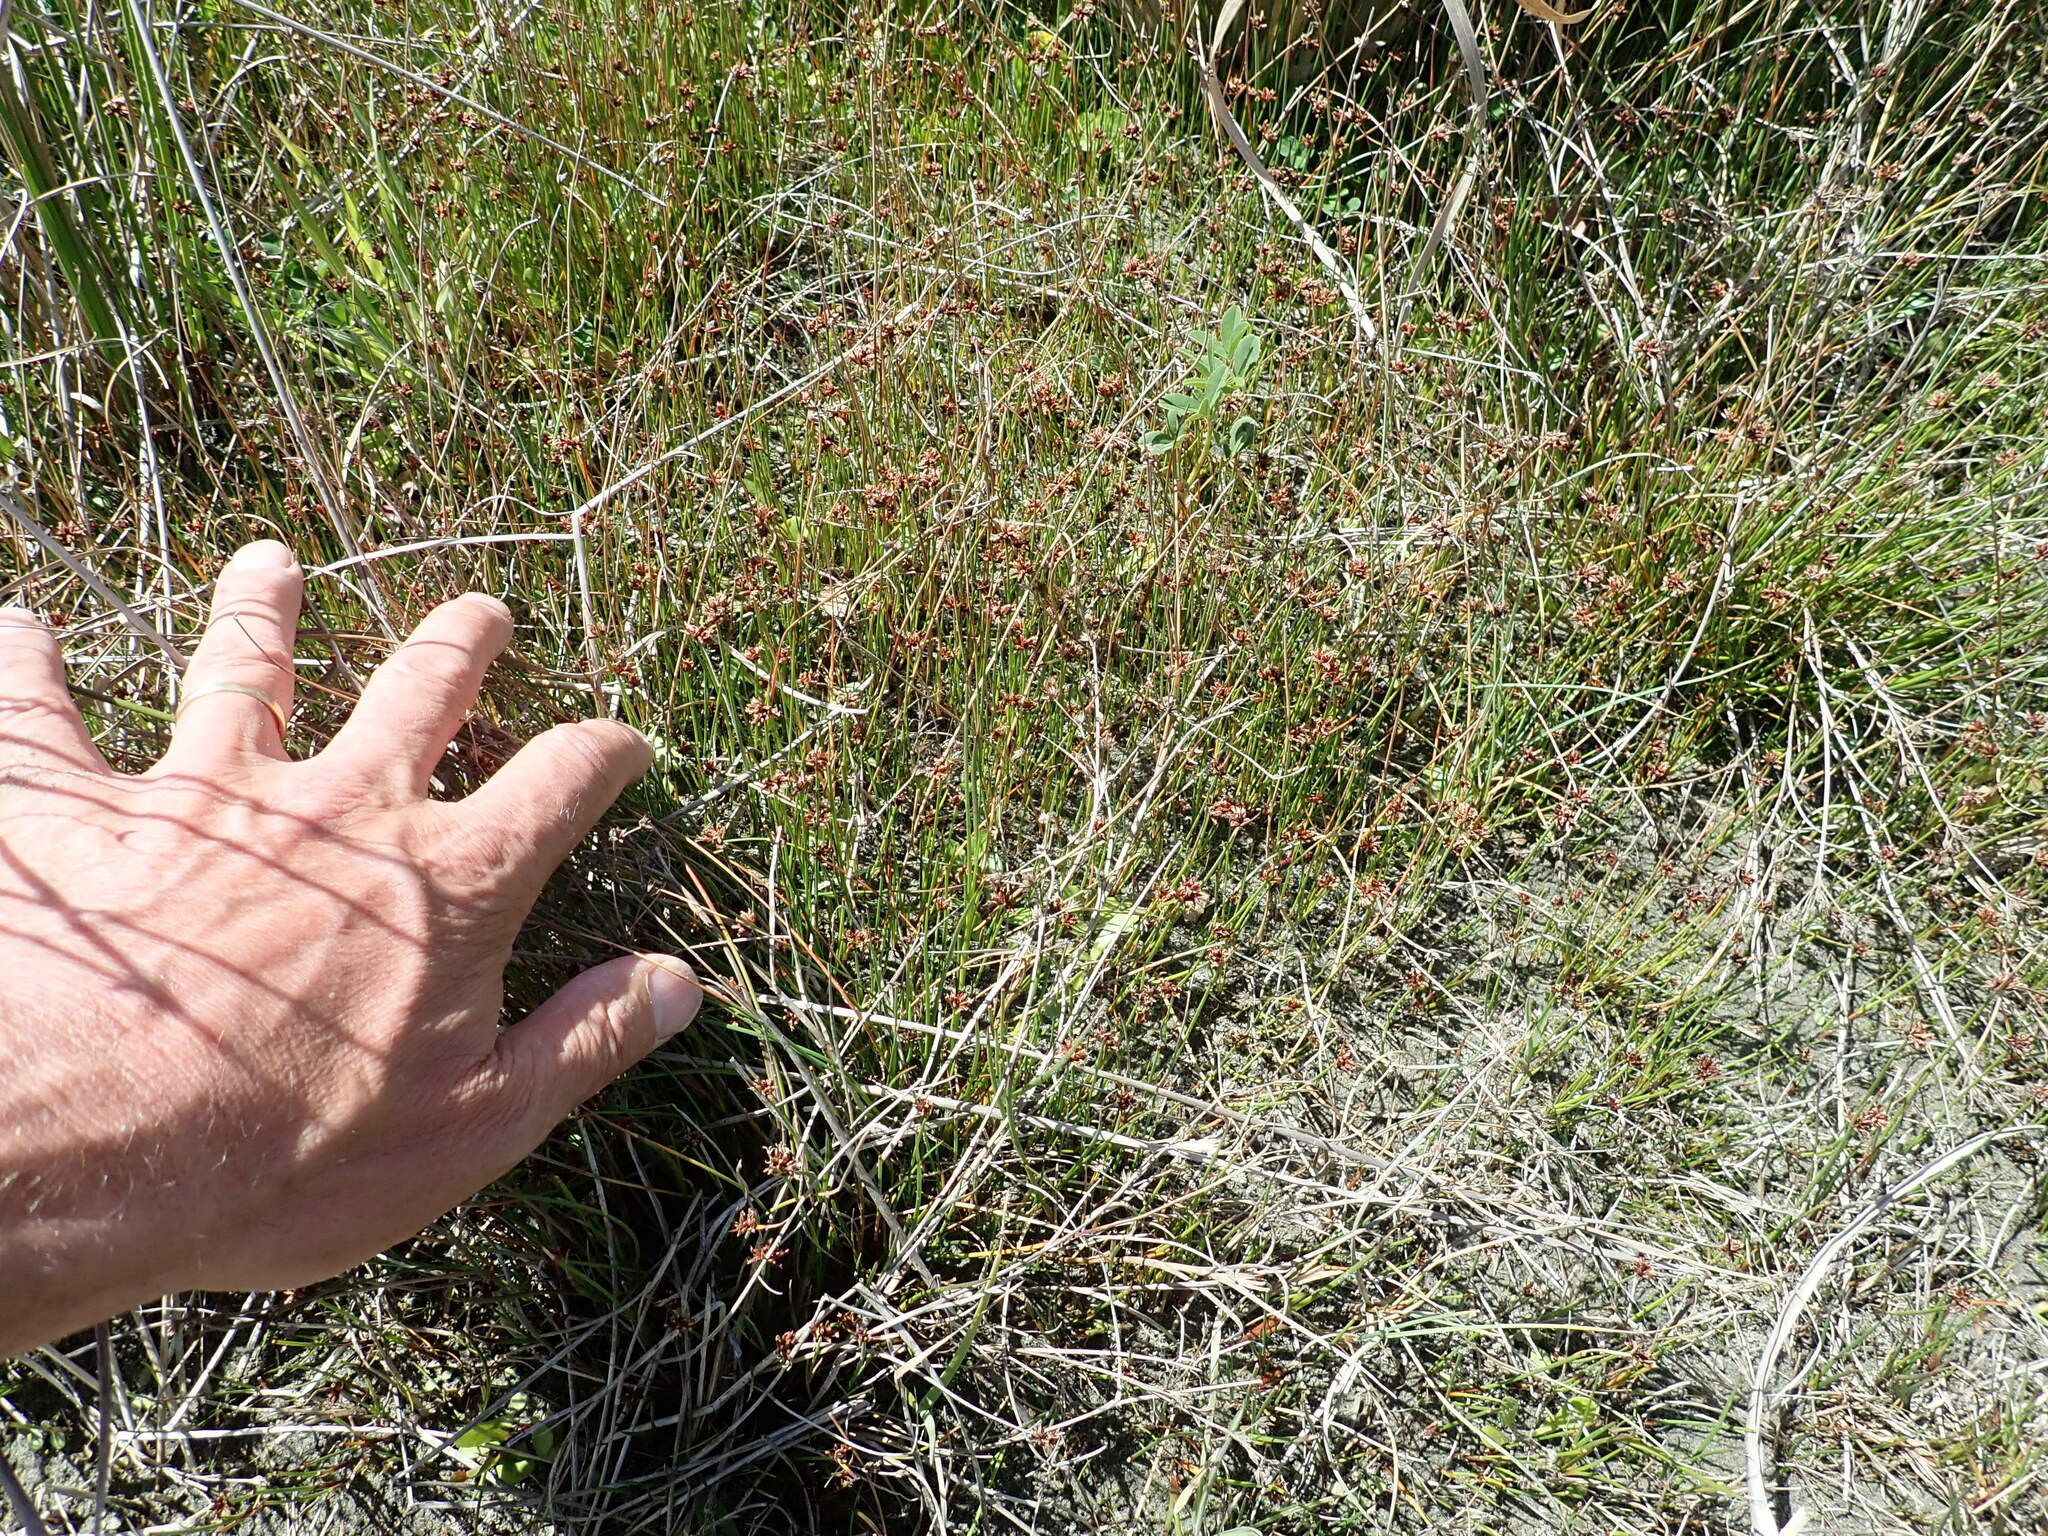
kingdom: Plantae
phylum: Tracheophyta
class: Liliopsida
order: Poales
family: Cyperaceae
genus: Schoenus
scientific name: Schoenus nitens
